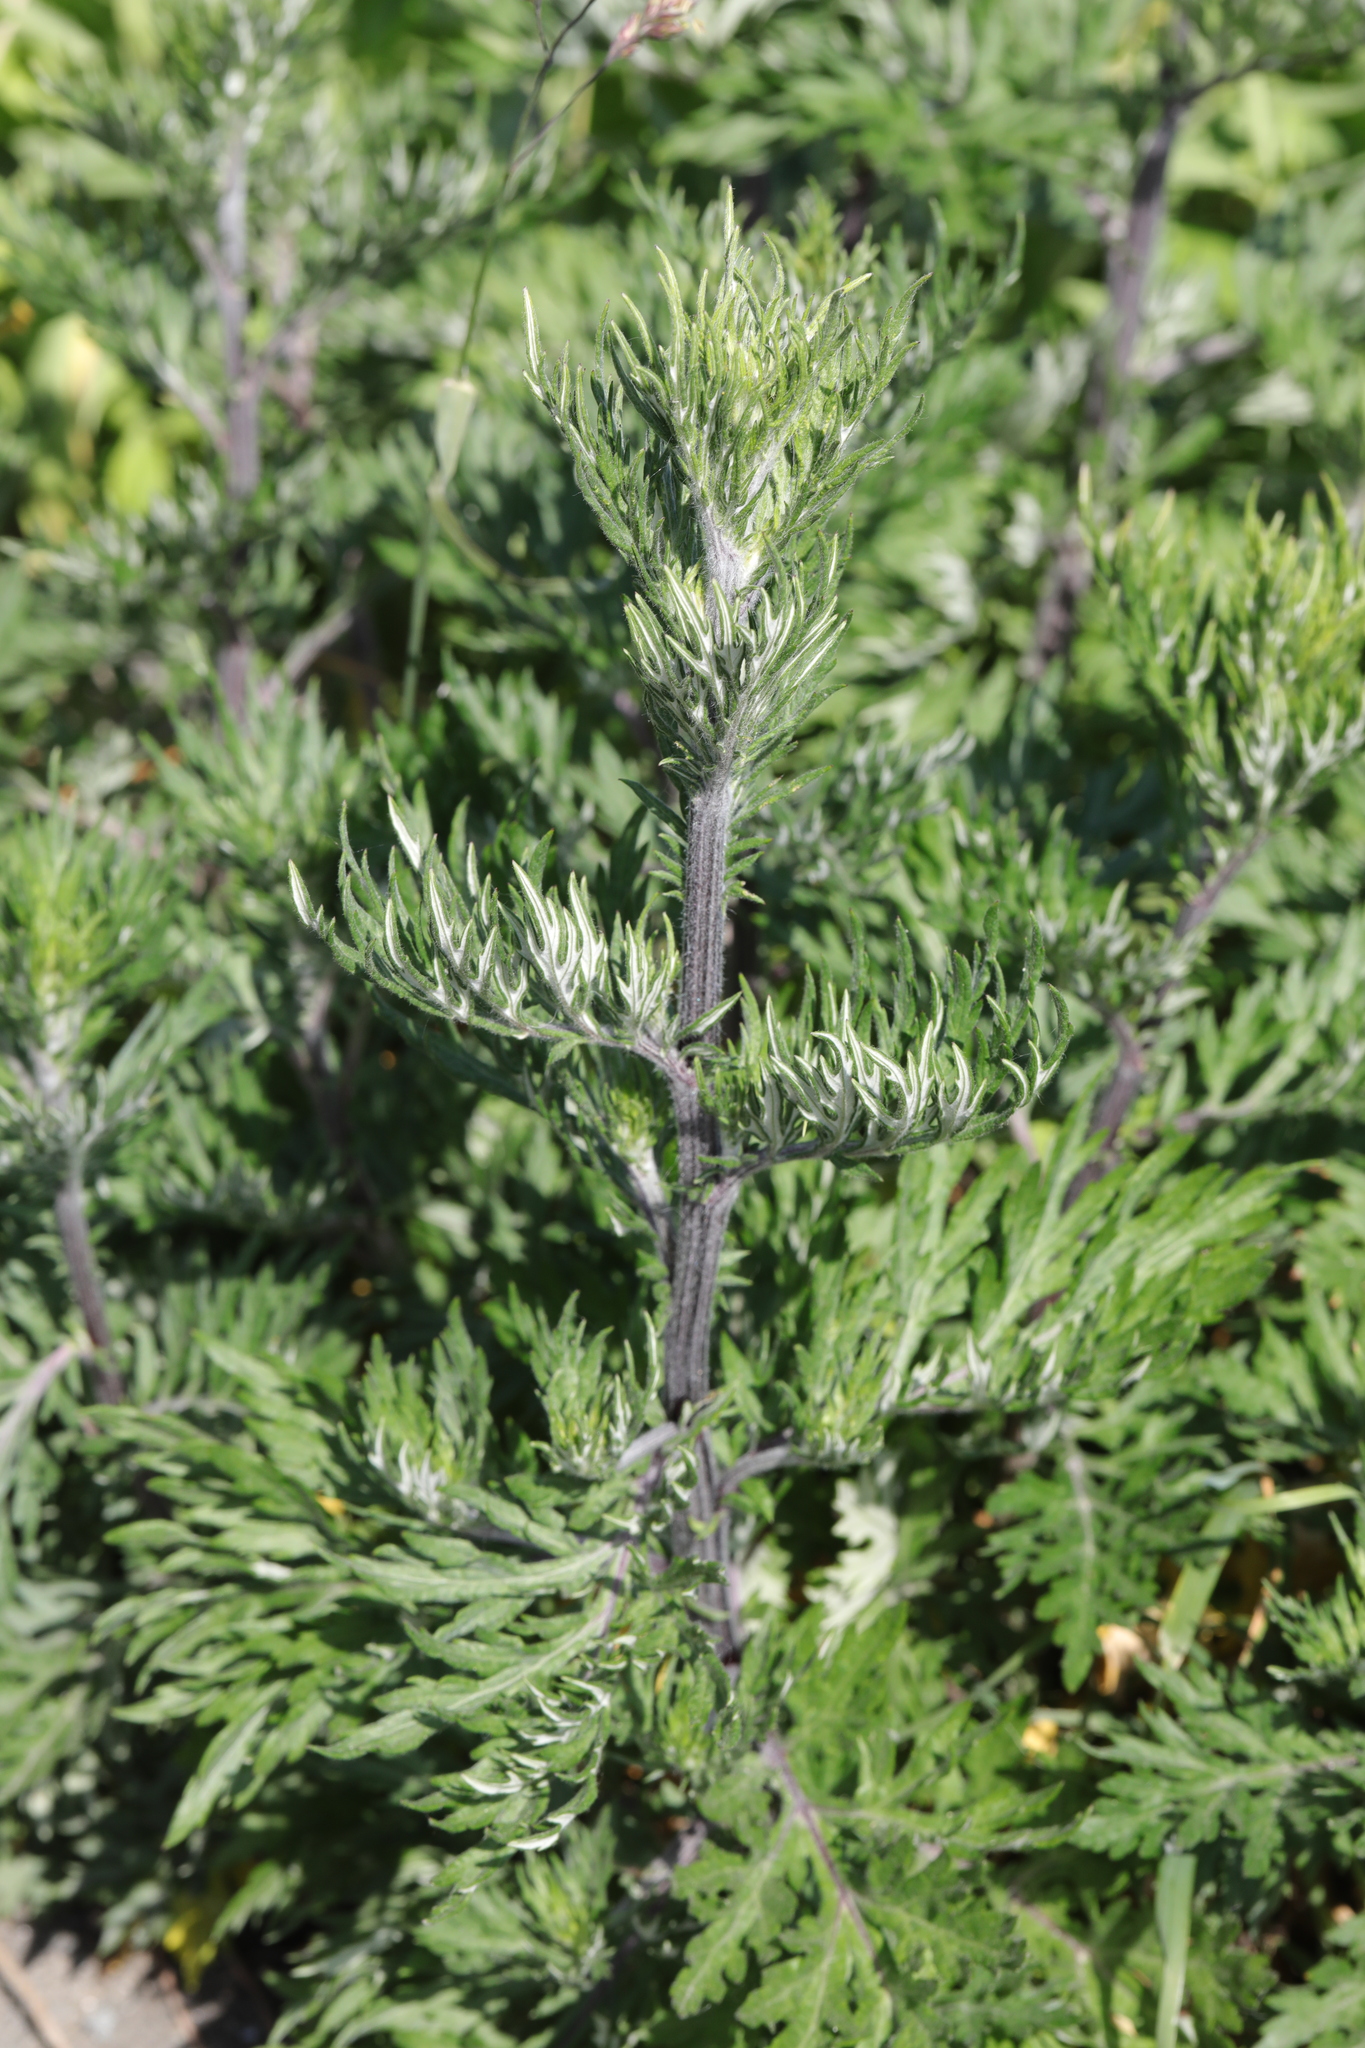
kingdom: Plantae
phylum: Tracheophyta
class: Magnoliopsida
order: Asterales
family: Asteraceae
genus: Artemisia
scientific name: Artemisia vulgaris
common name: Mugwort
